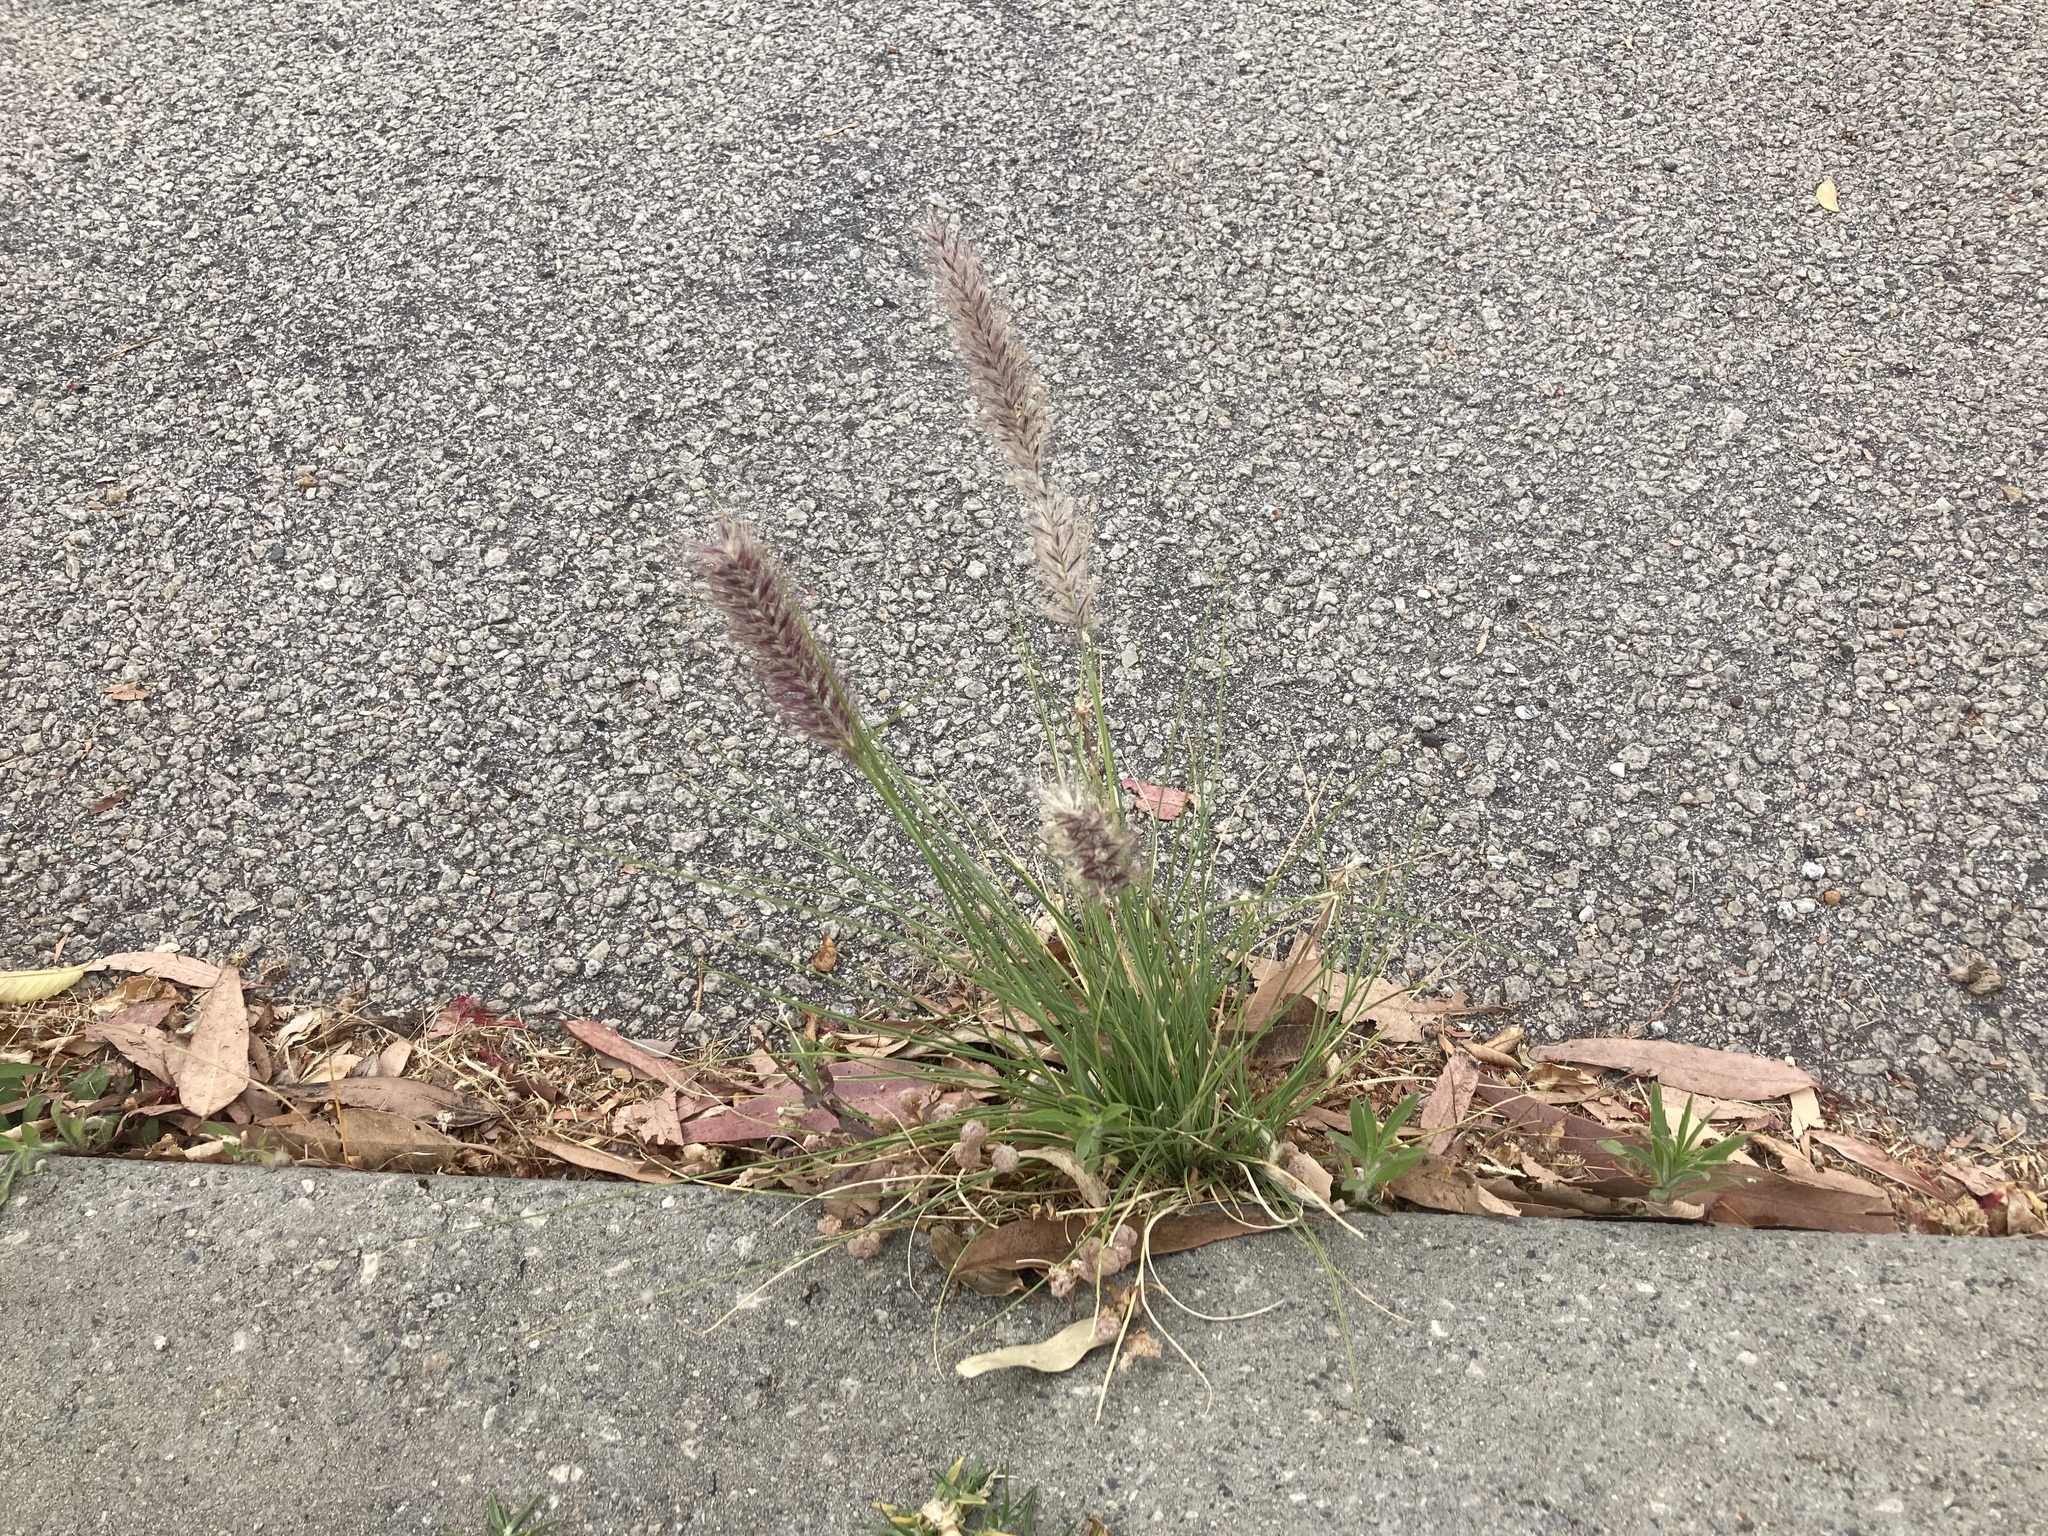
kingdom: Plantae
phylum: Tracheophyta
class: Liliopsida
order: Poales
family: Poaceae
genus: Cenchrus
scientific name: Cenchrus setaceus
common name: Crimson fountaingrass
